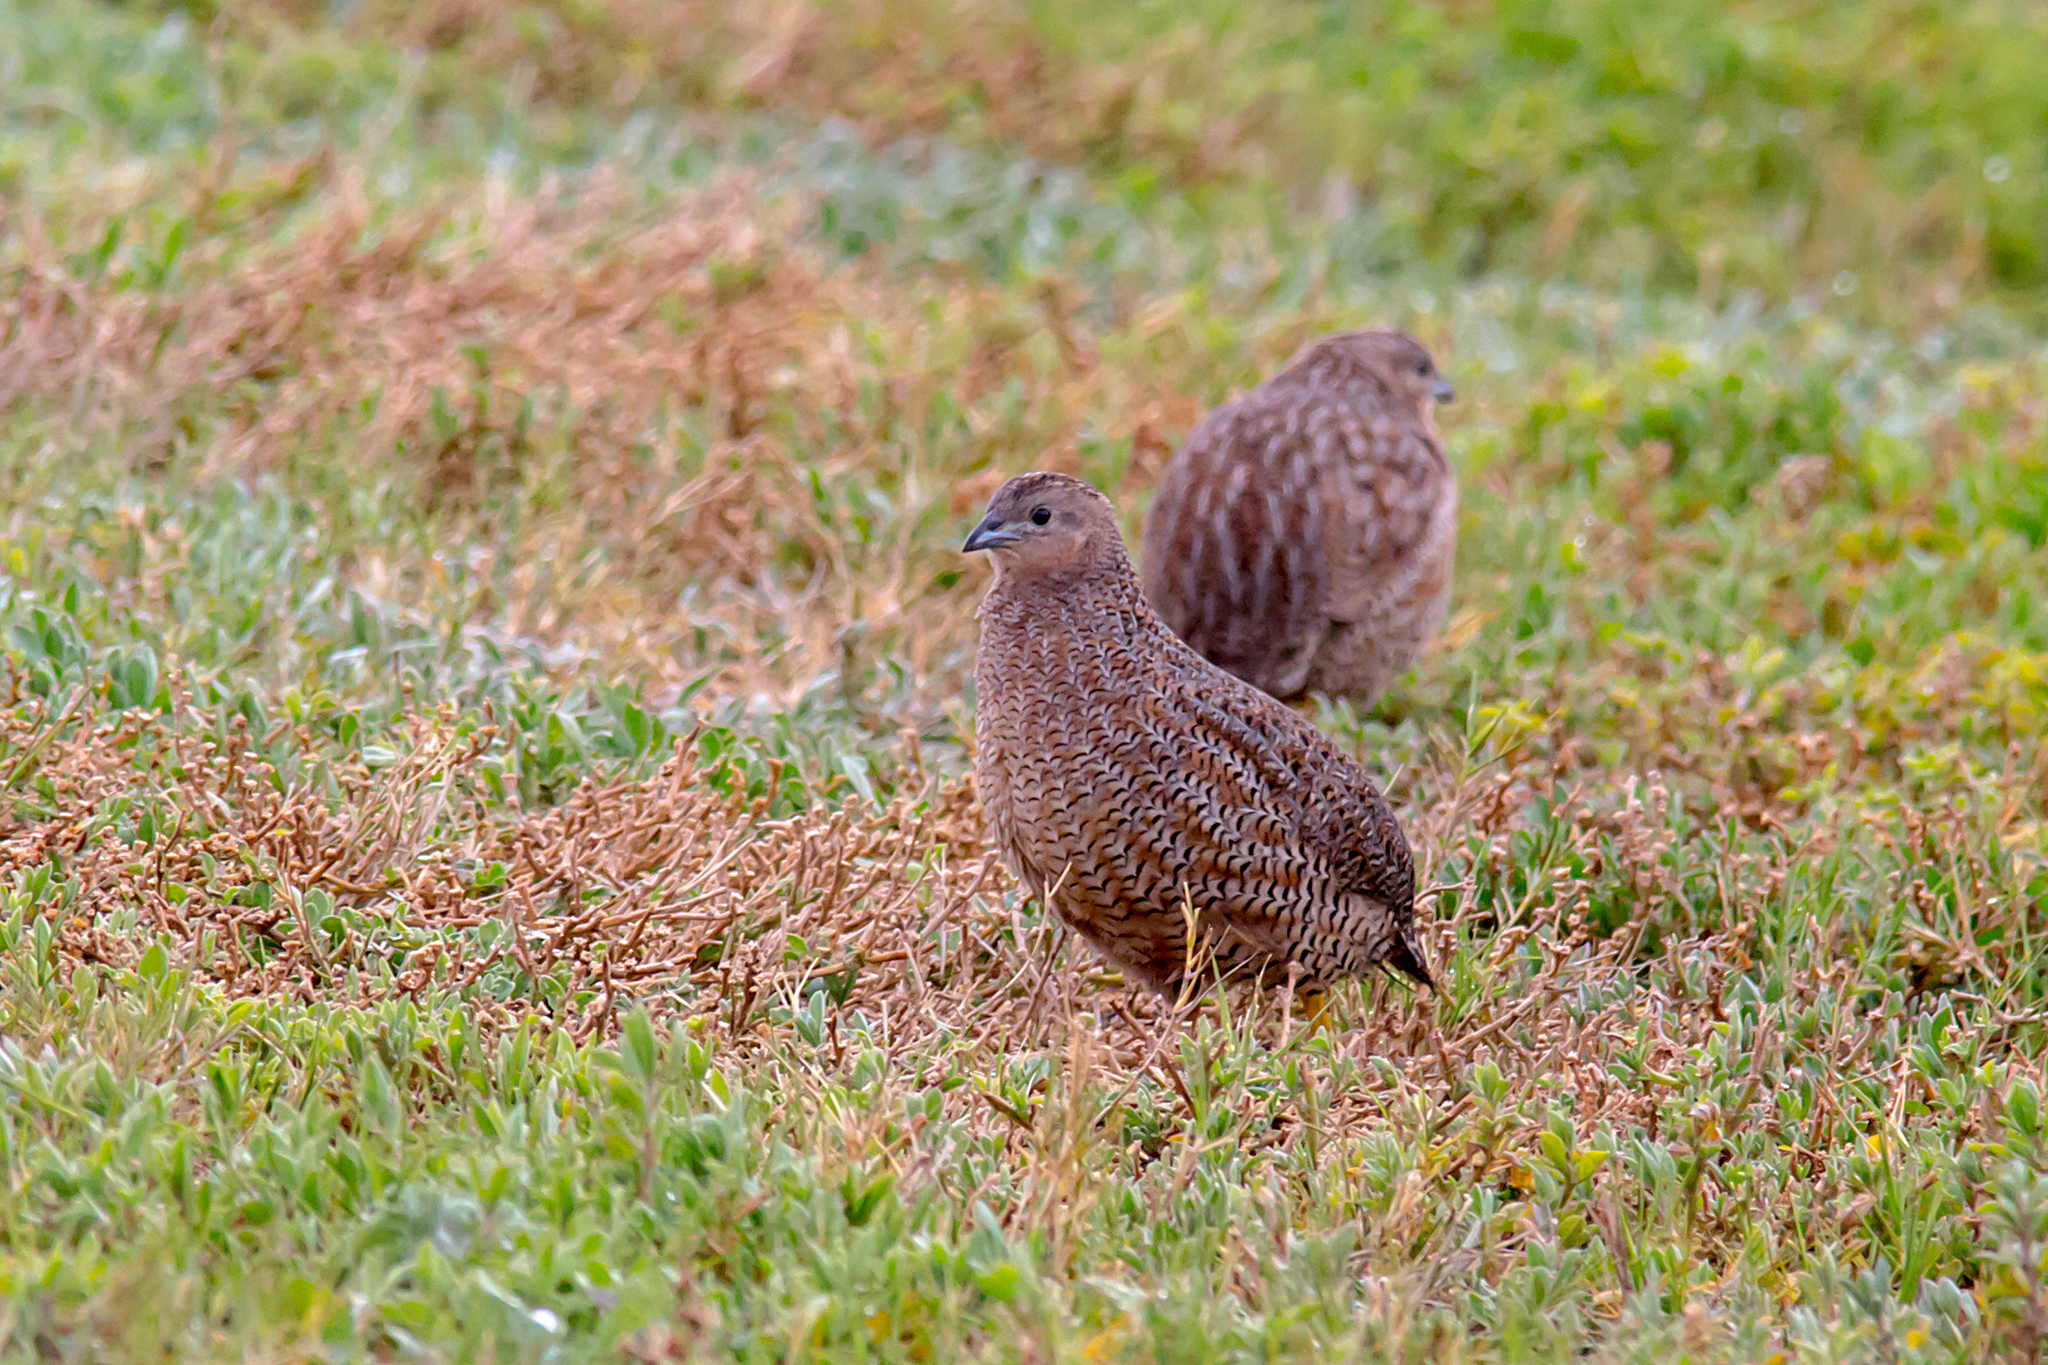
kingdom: Animalia
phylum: Chordata
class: Aves
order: Galliformes
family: Phasianidae
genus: Synoicus
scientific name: Synoicus ypsilophorus
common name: Brown quail
